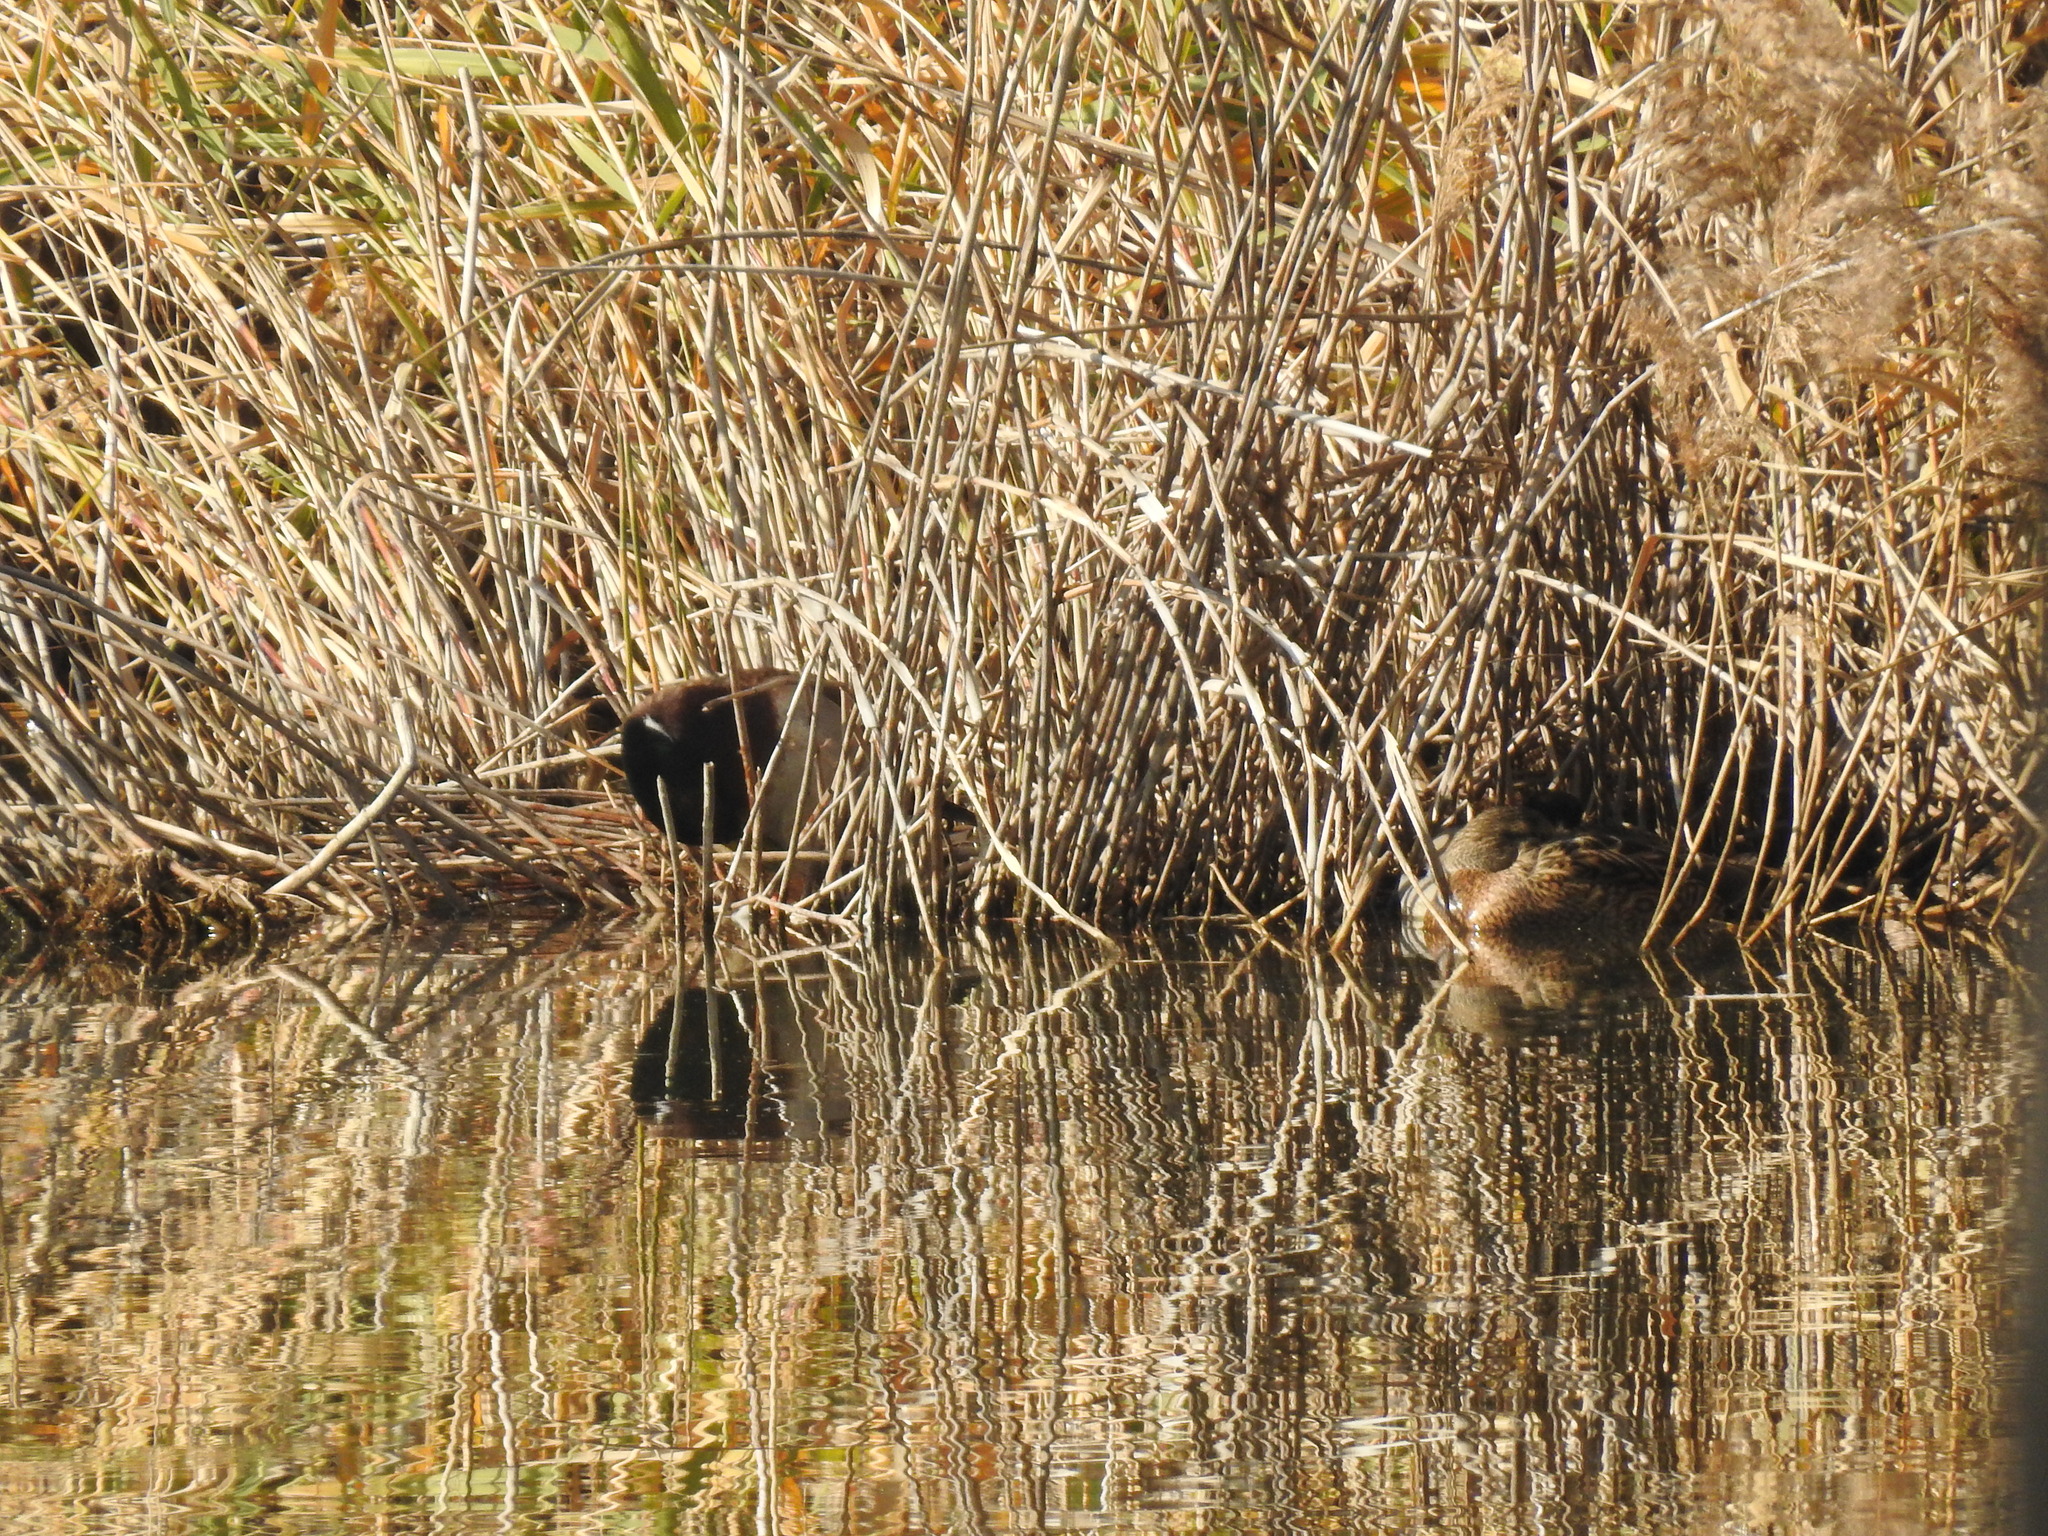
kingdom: Animalia
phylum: Chordata
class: Aves
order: Anseriformes
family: Anatidae
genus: Anas
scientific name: Anas platyrhynchos
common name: Mallard
